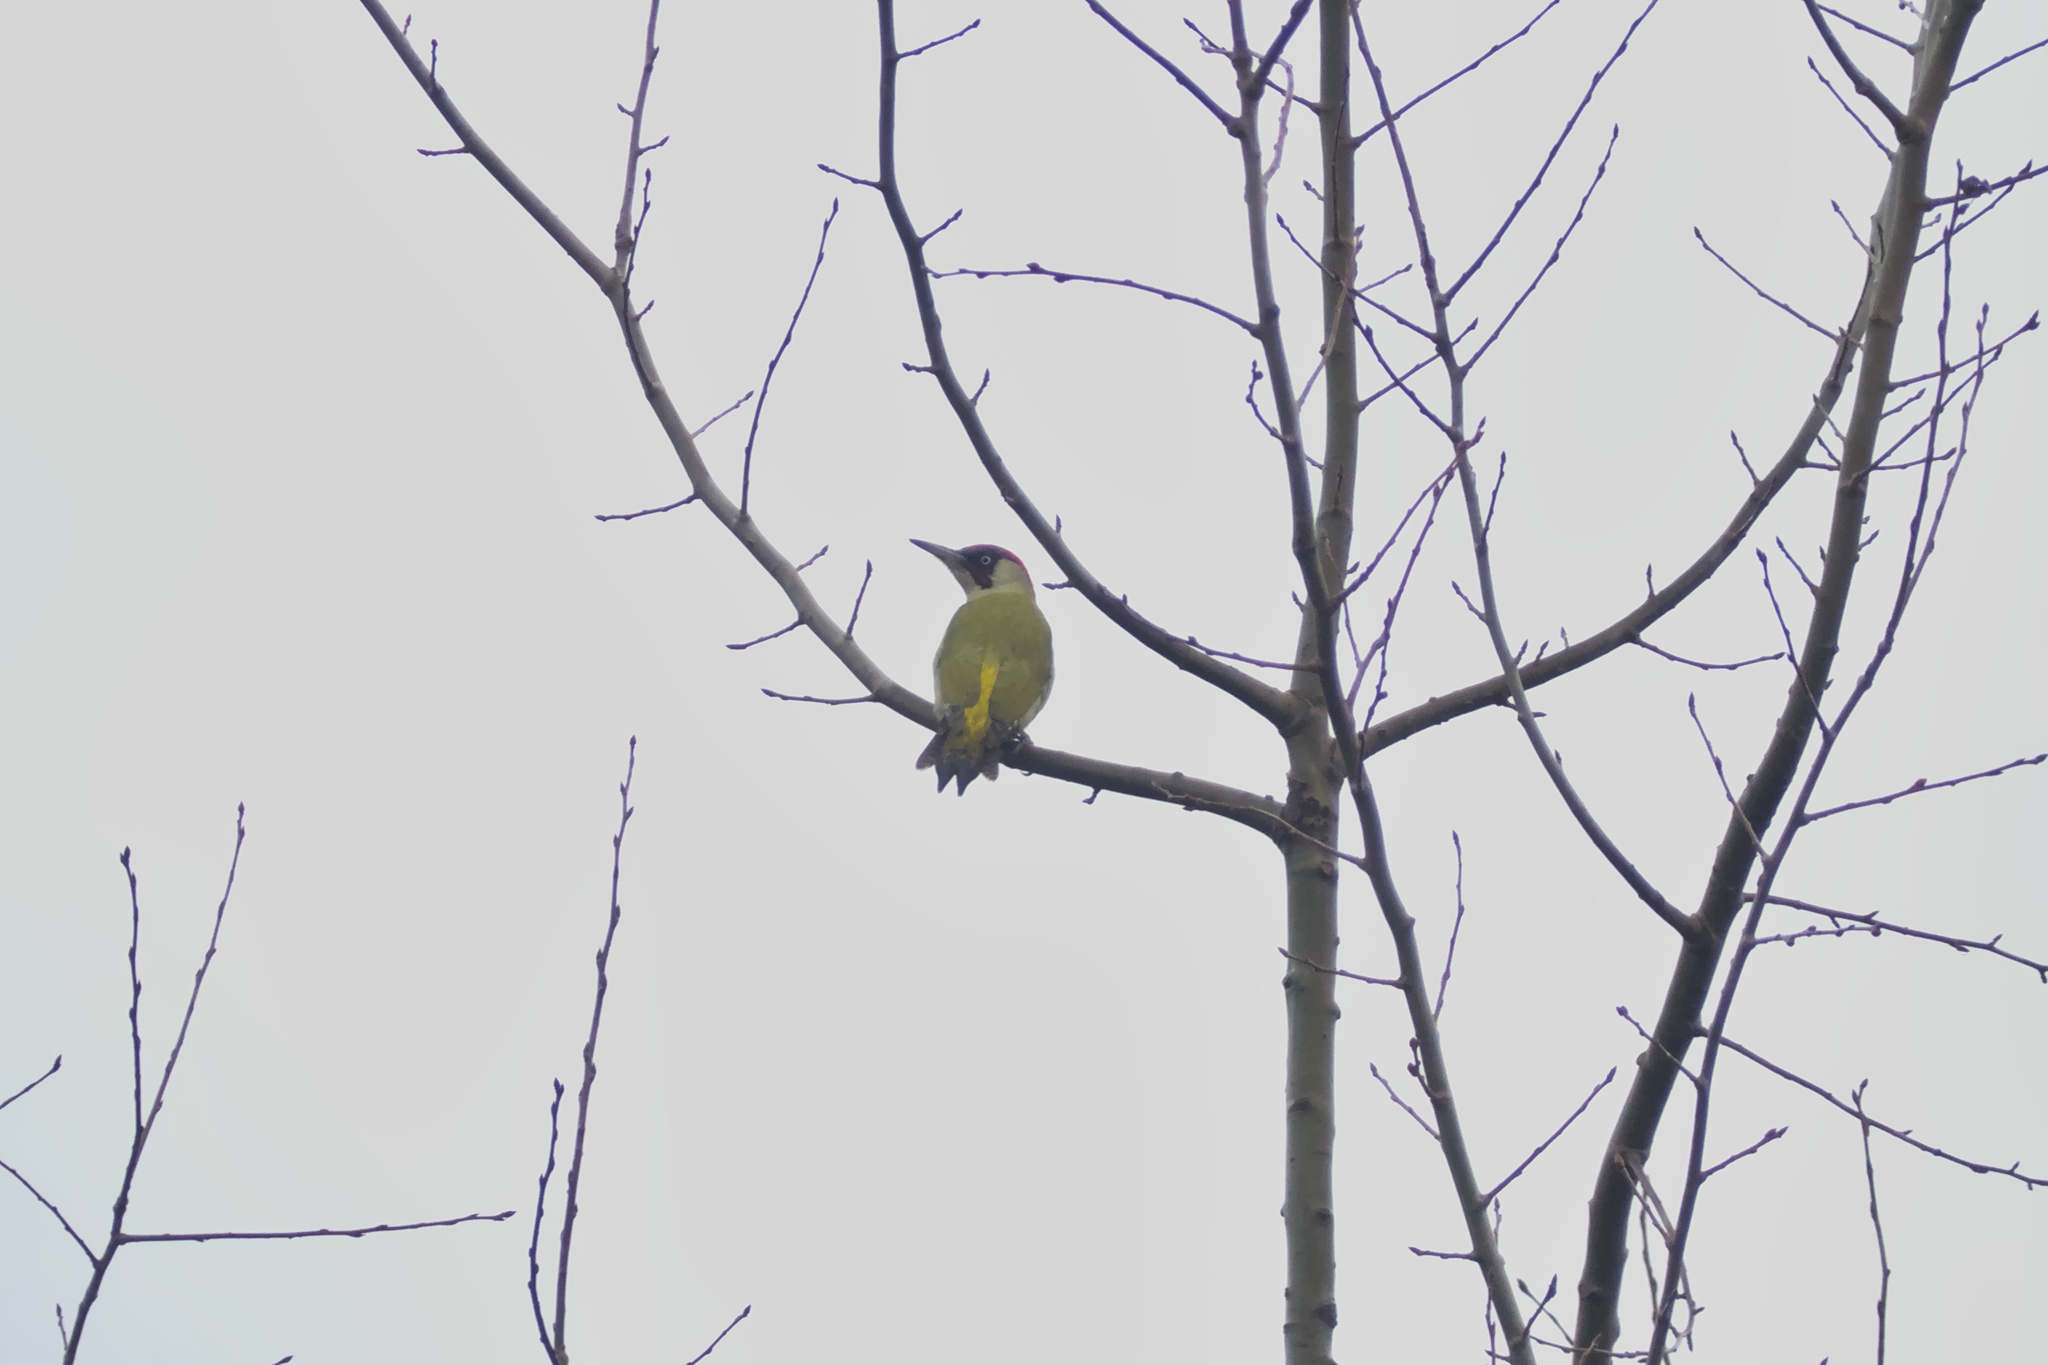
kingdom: Animalia
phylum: Chordata
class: Aves
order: Piciformes
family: Picidae
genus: Picus
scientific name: Picus viridis
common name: European green woodpecker
